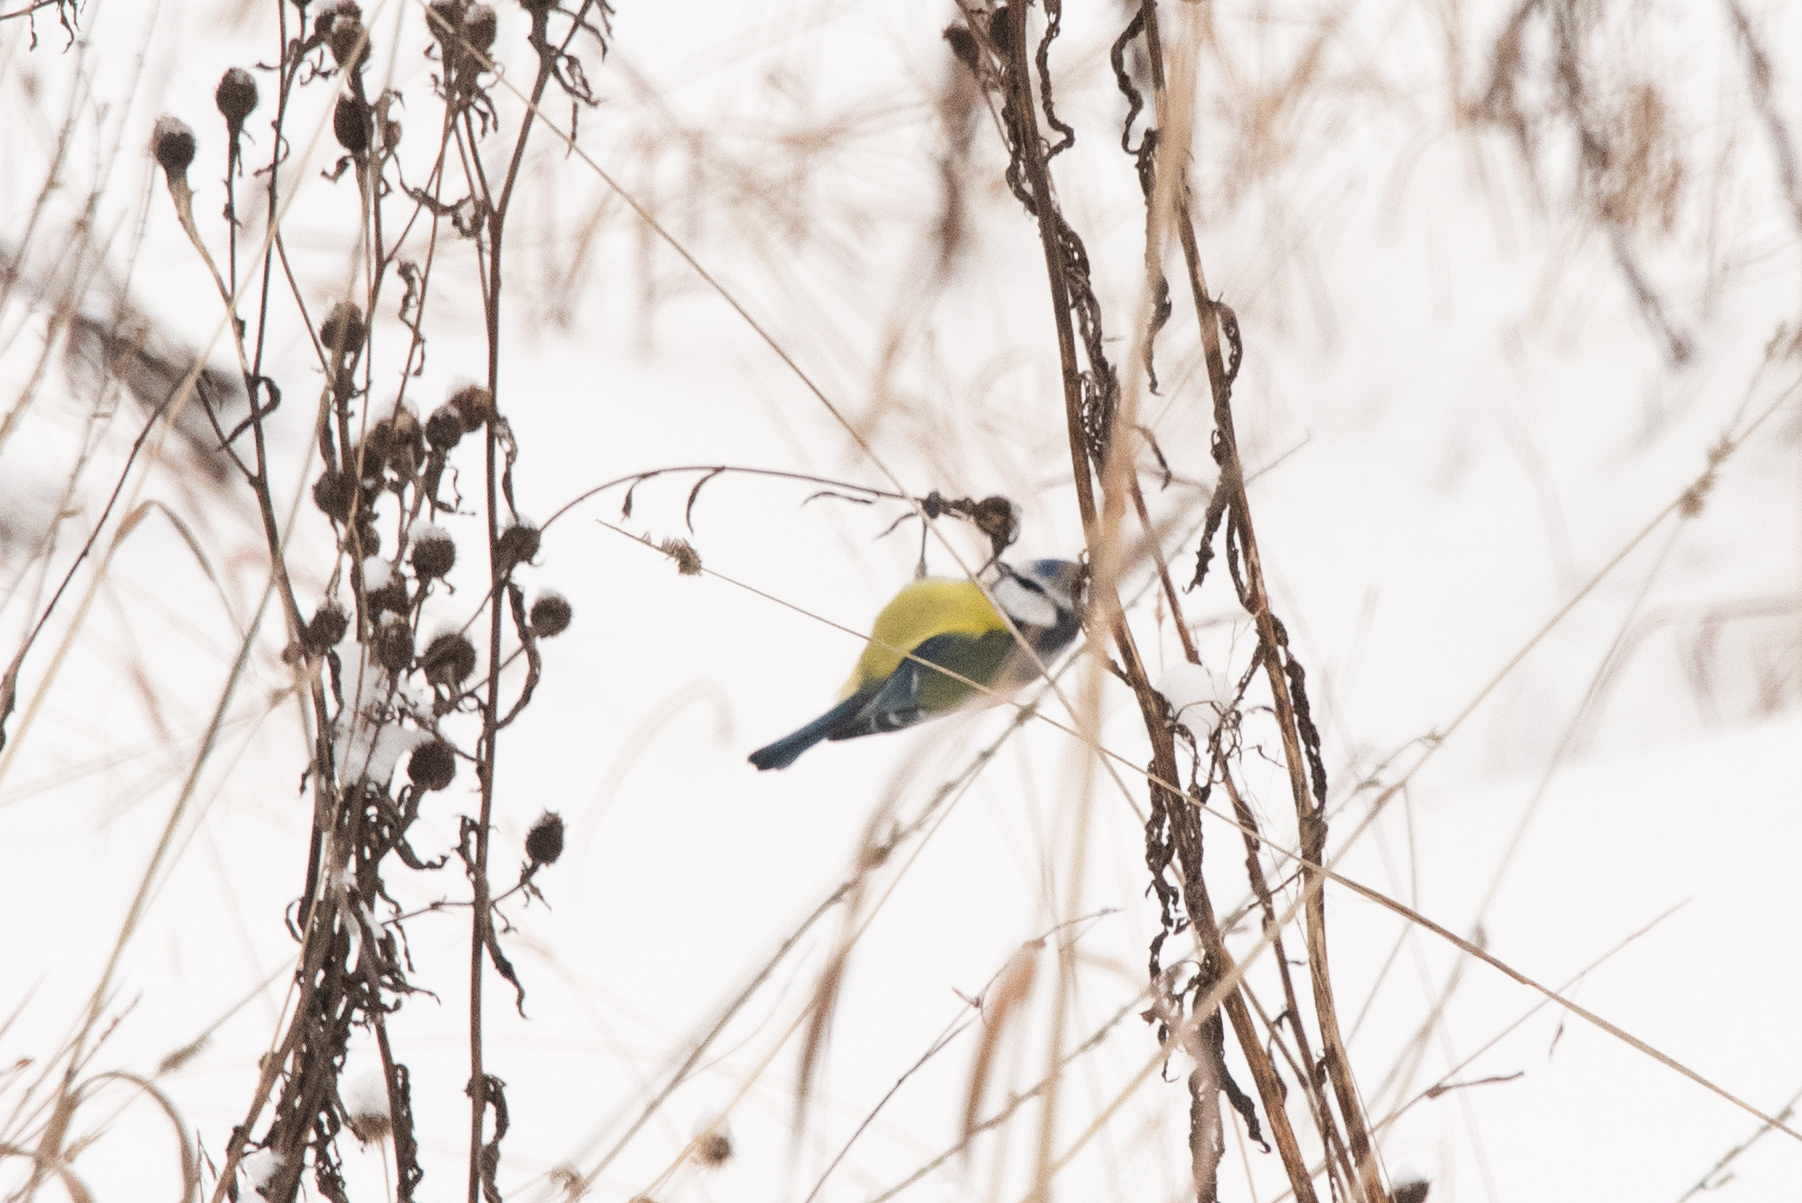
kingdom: Animalia
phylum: Chordata
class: Aves
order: Passeriformes
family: Paridae
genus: Cyanistes
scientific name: Cyanistes caeruleus
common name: Eurasian blue tit
